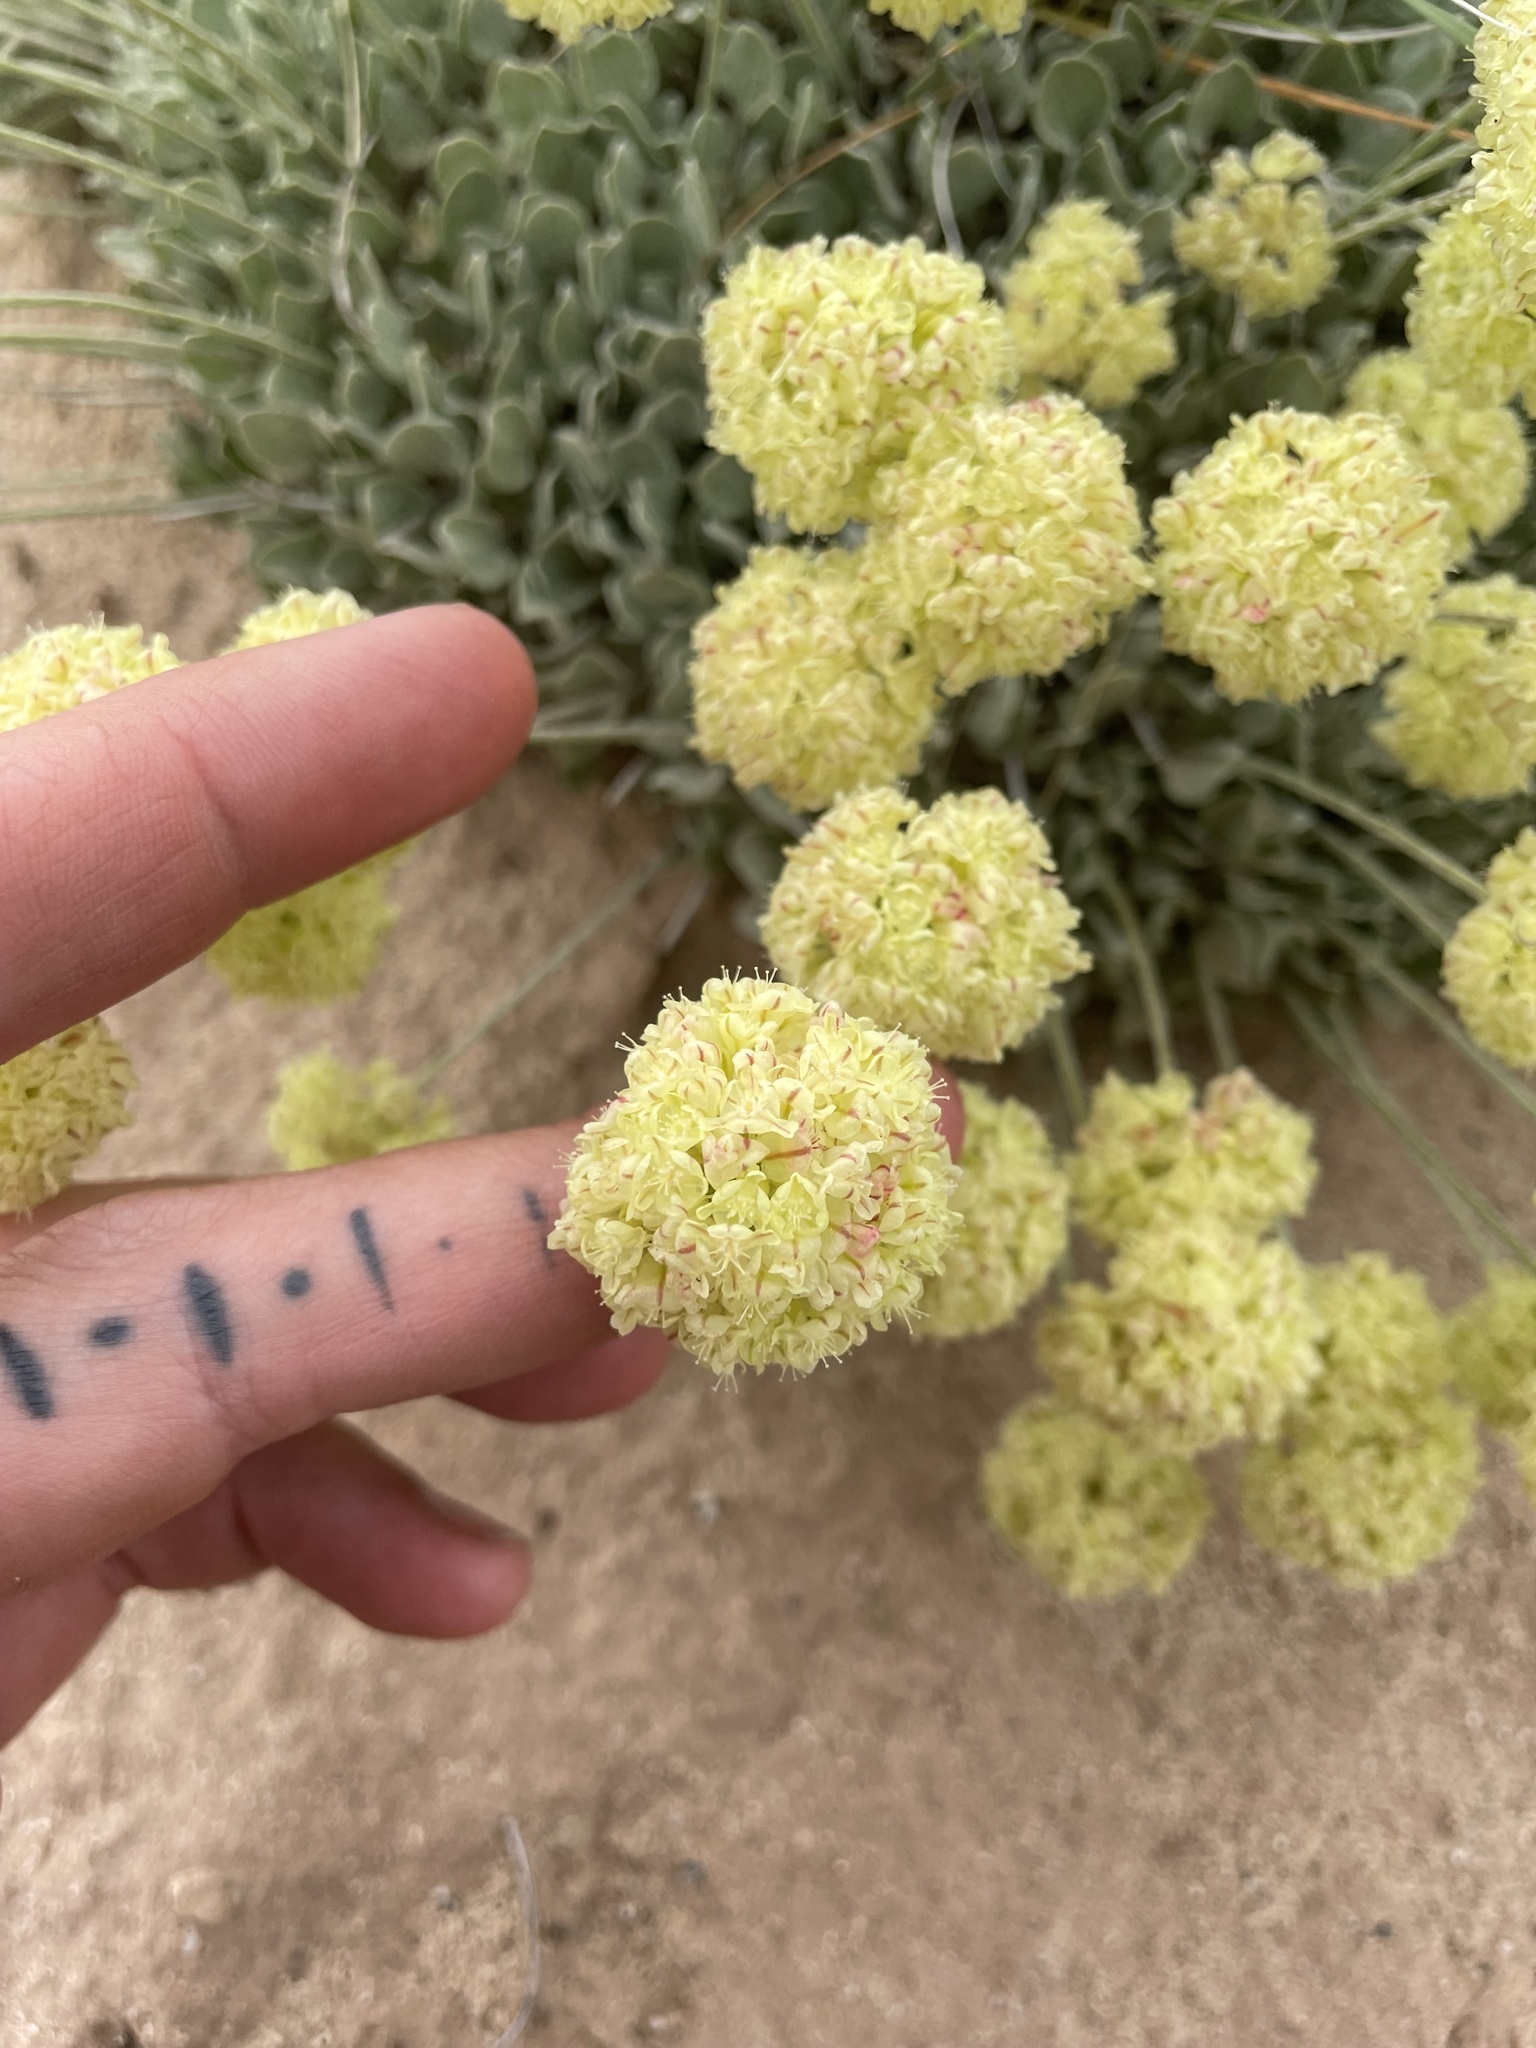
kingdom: Plantae
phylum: Tracheophyta
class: Magnoliopsida
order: Caryophyllales
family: Polygonaceae
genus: Eriogonum
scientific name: Eriogonum ovalifolium
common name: Cushion buckwheat
